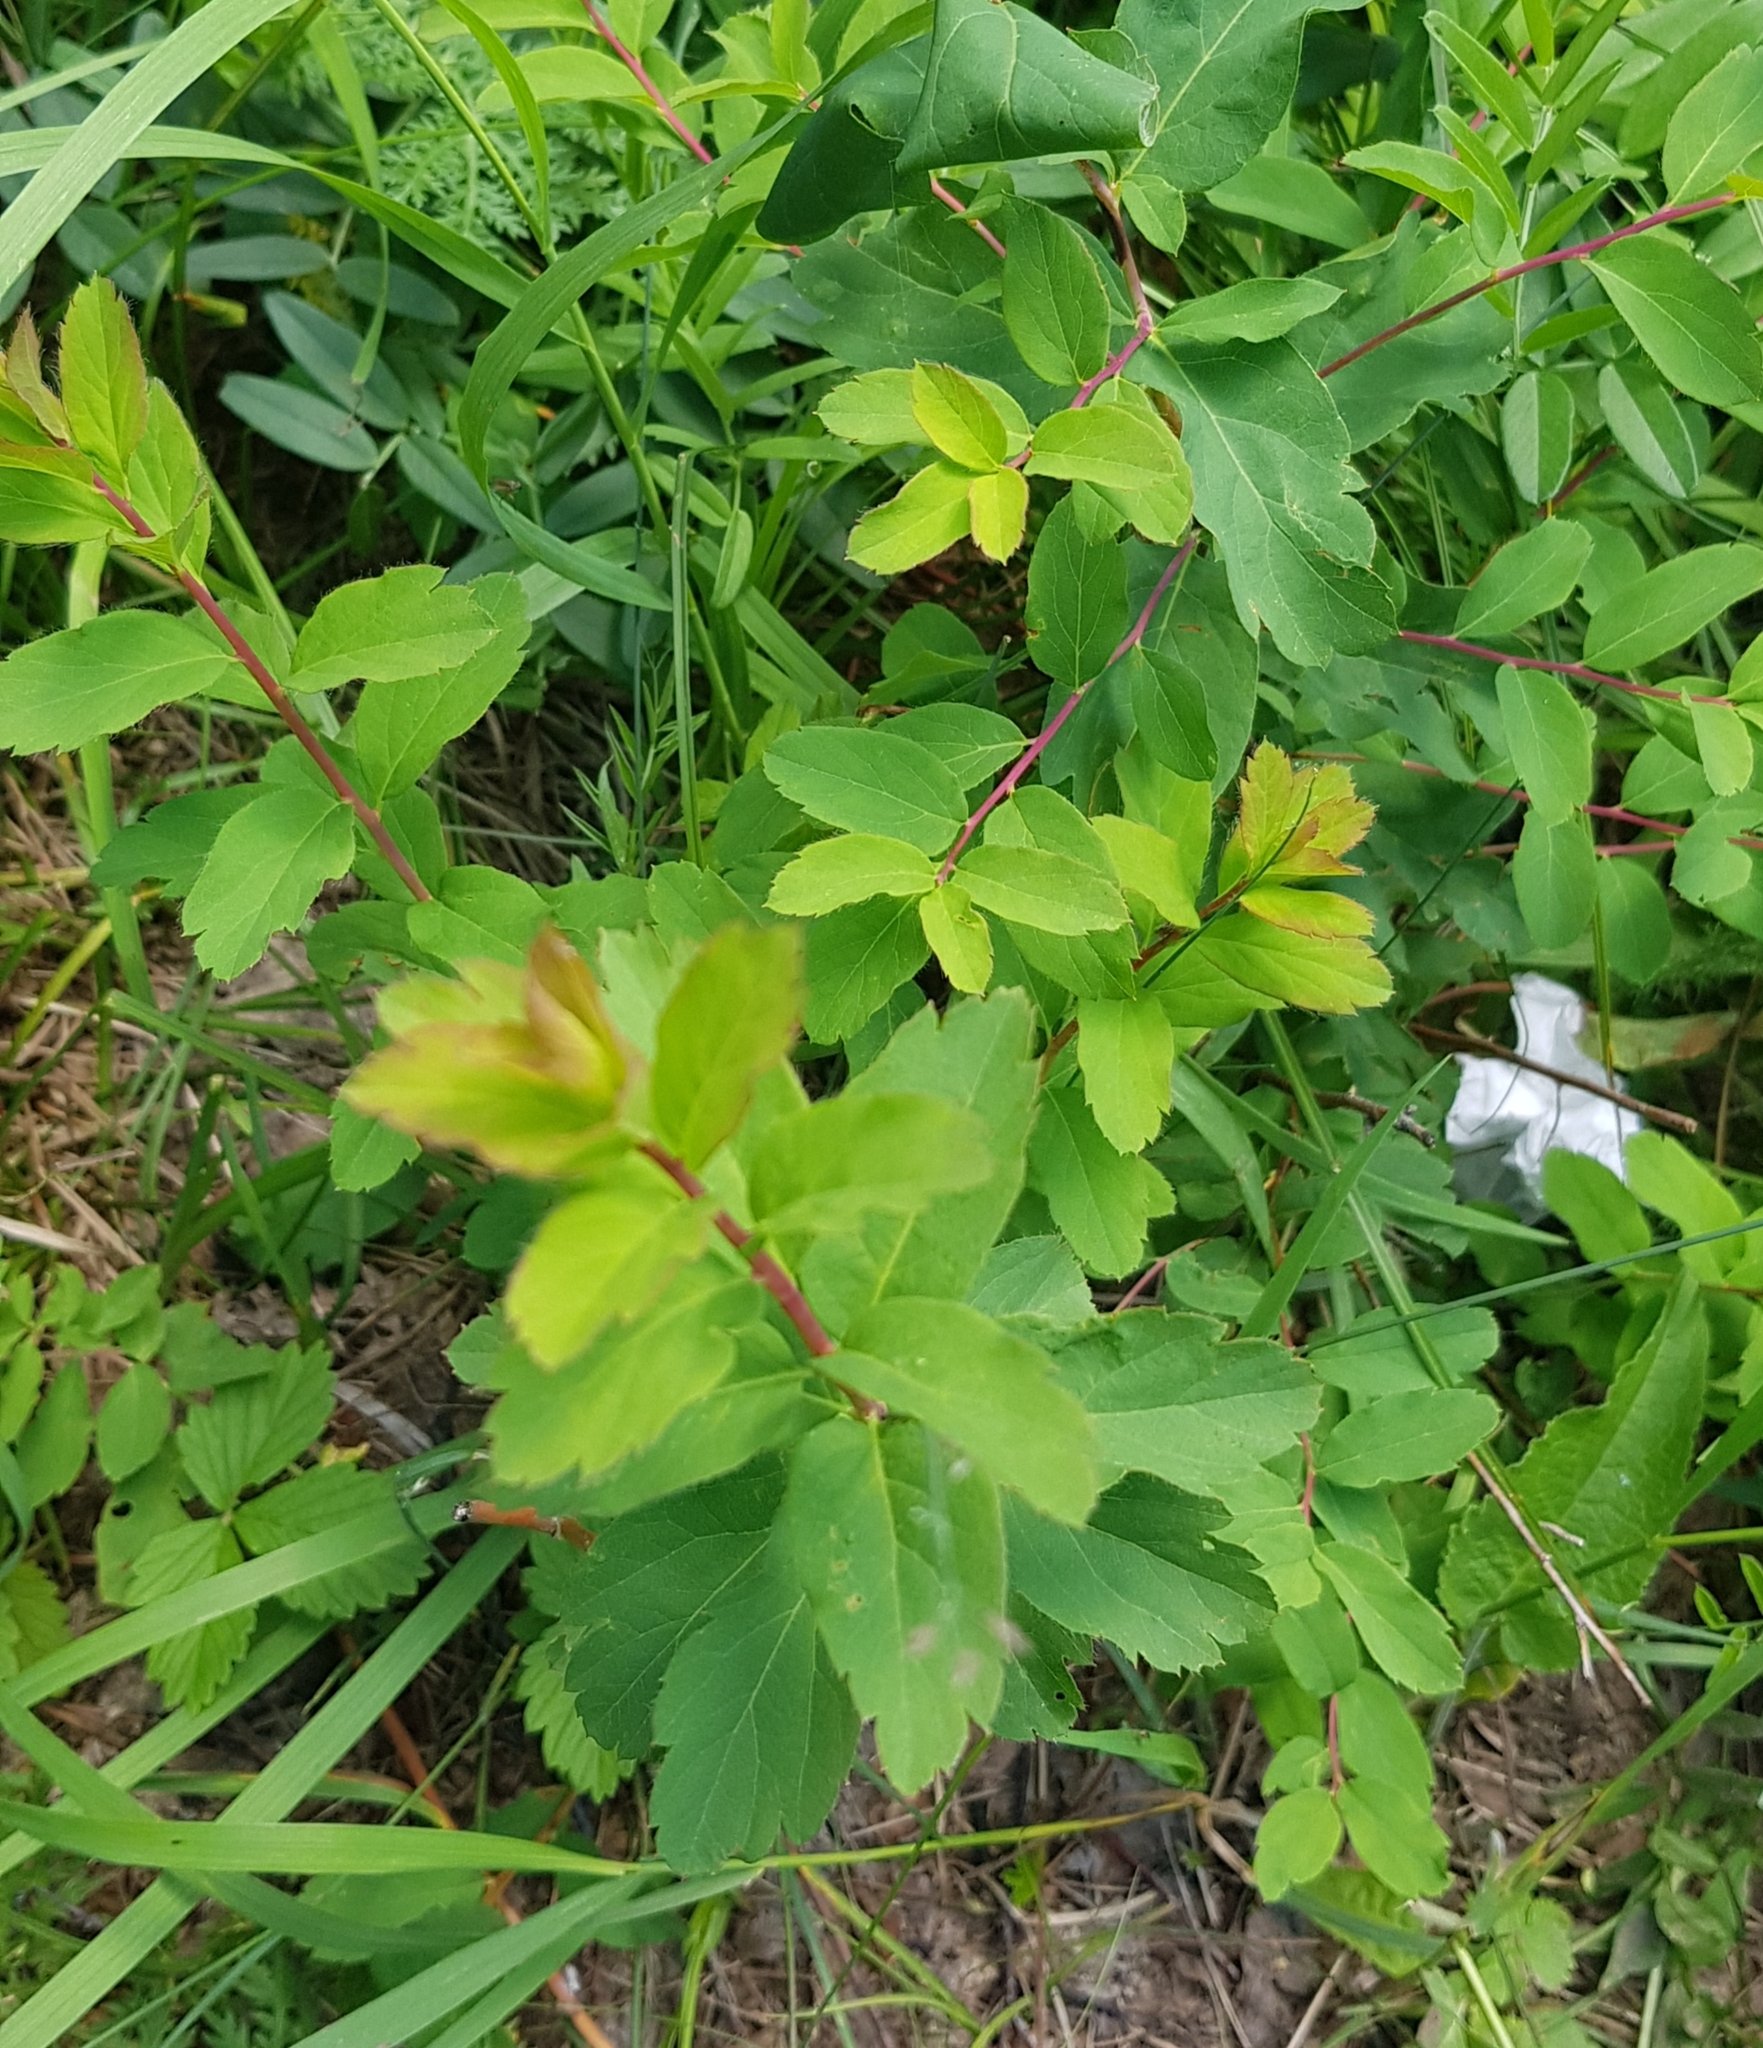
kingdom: Plantae
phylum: Tracheophyta
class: Magnoliopsida
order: Rosales
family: Rosaceae
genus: Spiraea
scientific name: Spiraea flexuosa
